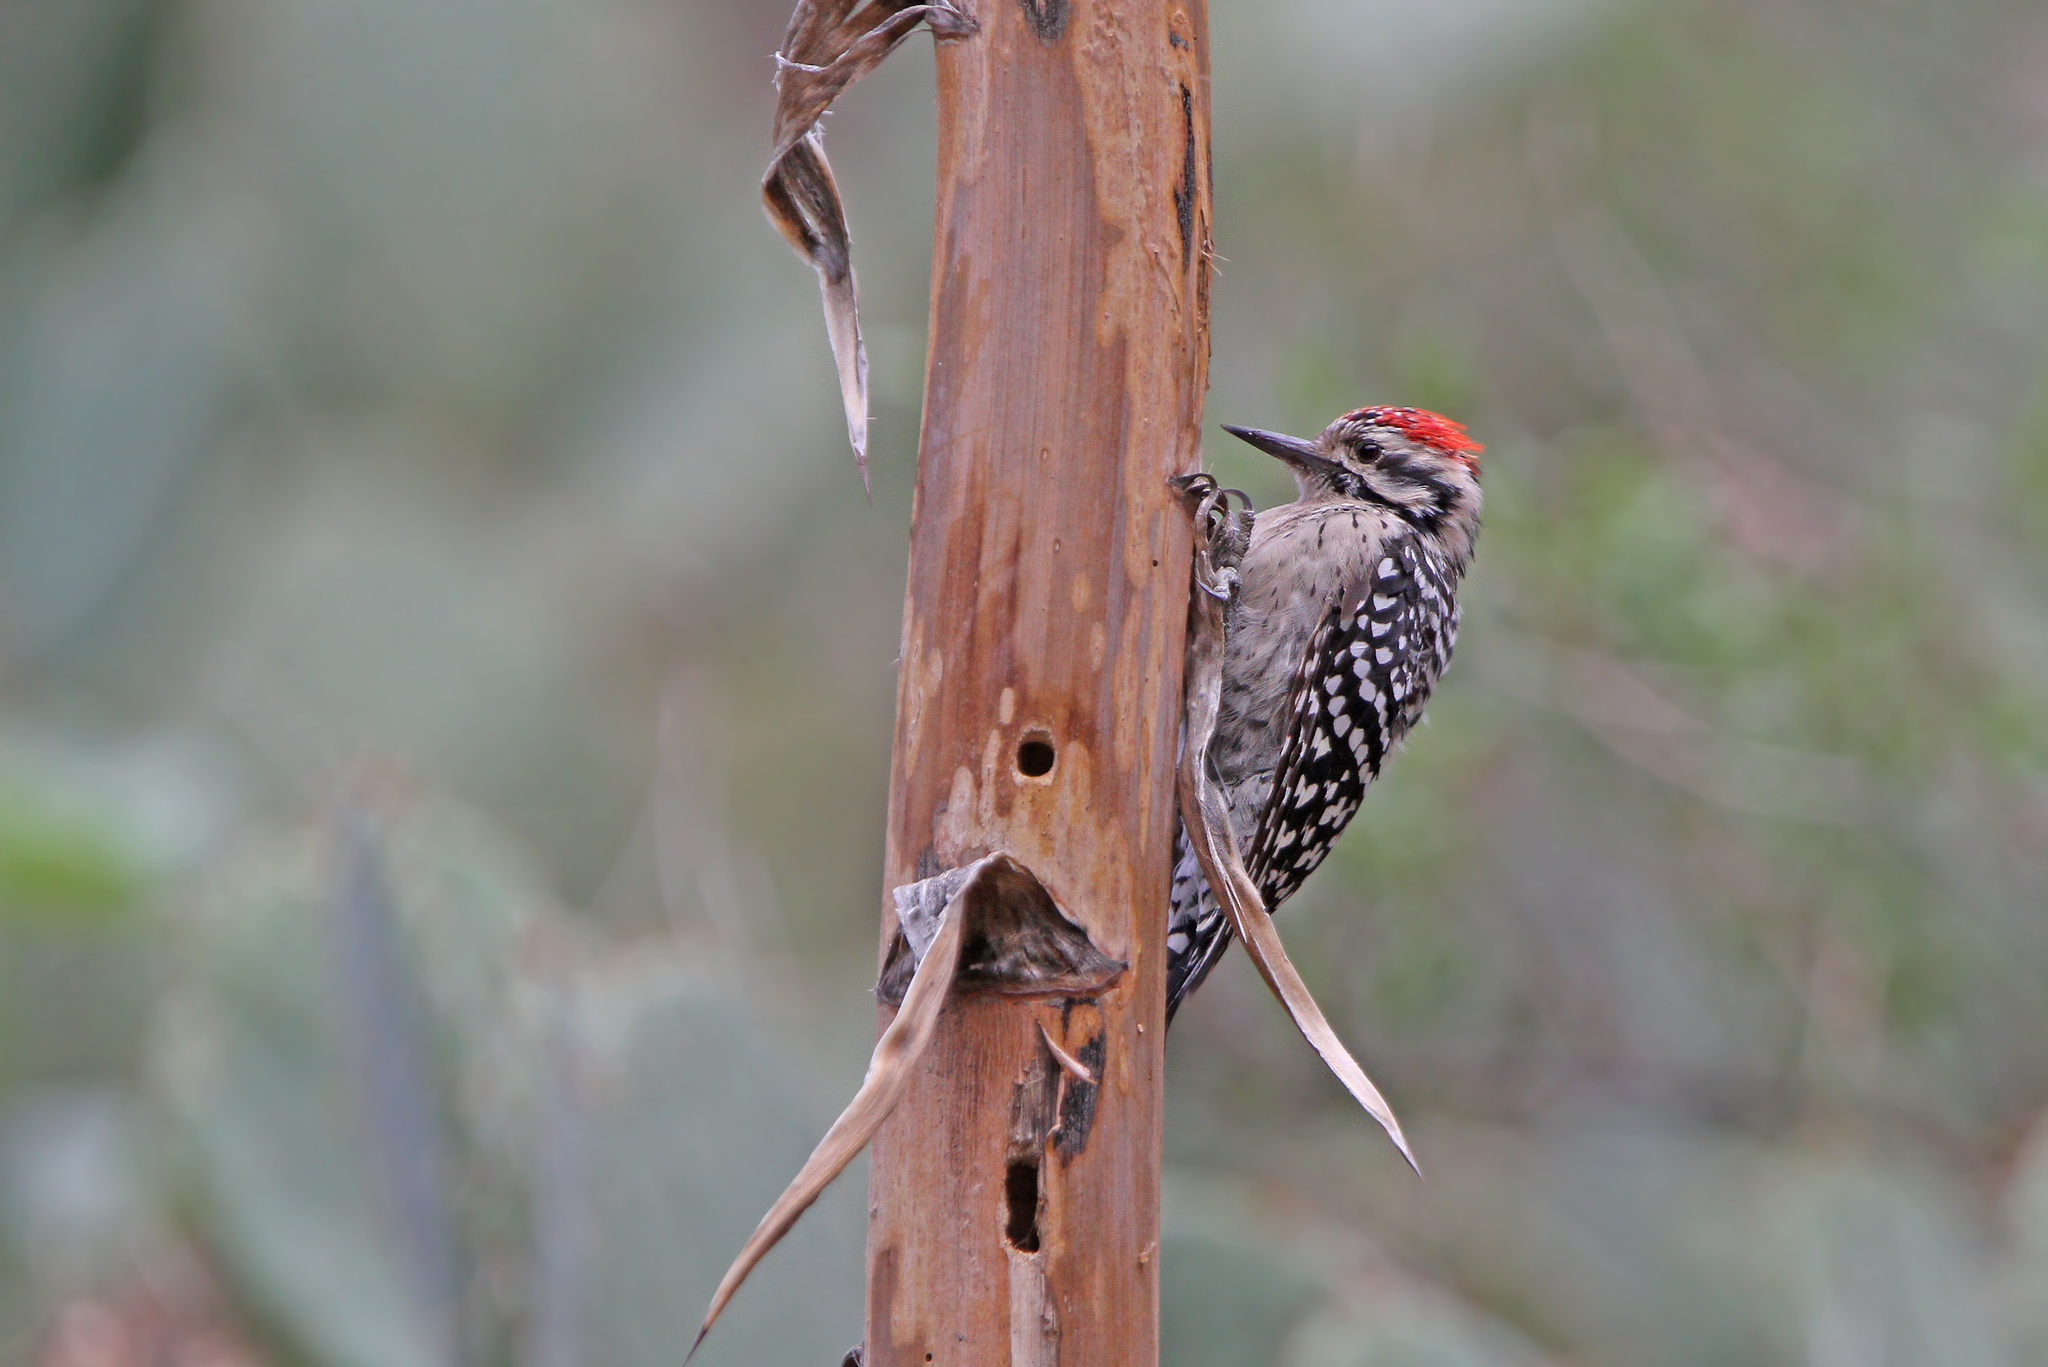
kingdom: Animalia
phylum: Chordata
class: Aves
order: Piciformes
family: Picidae
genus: Dryobates
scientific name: Dryobates scalaris
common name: Ladder-backed woodpecker
